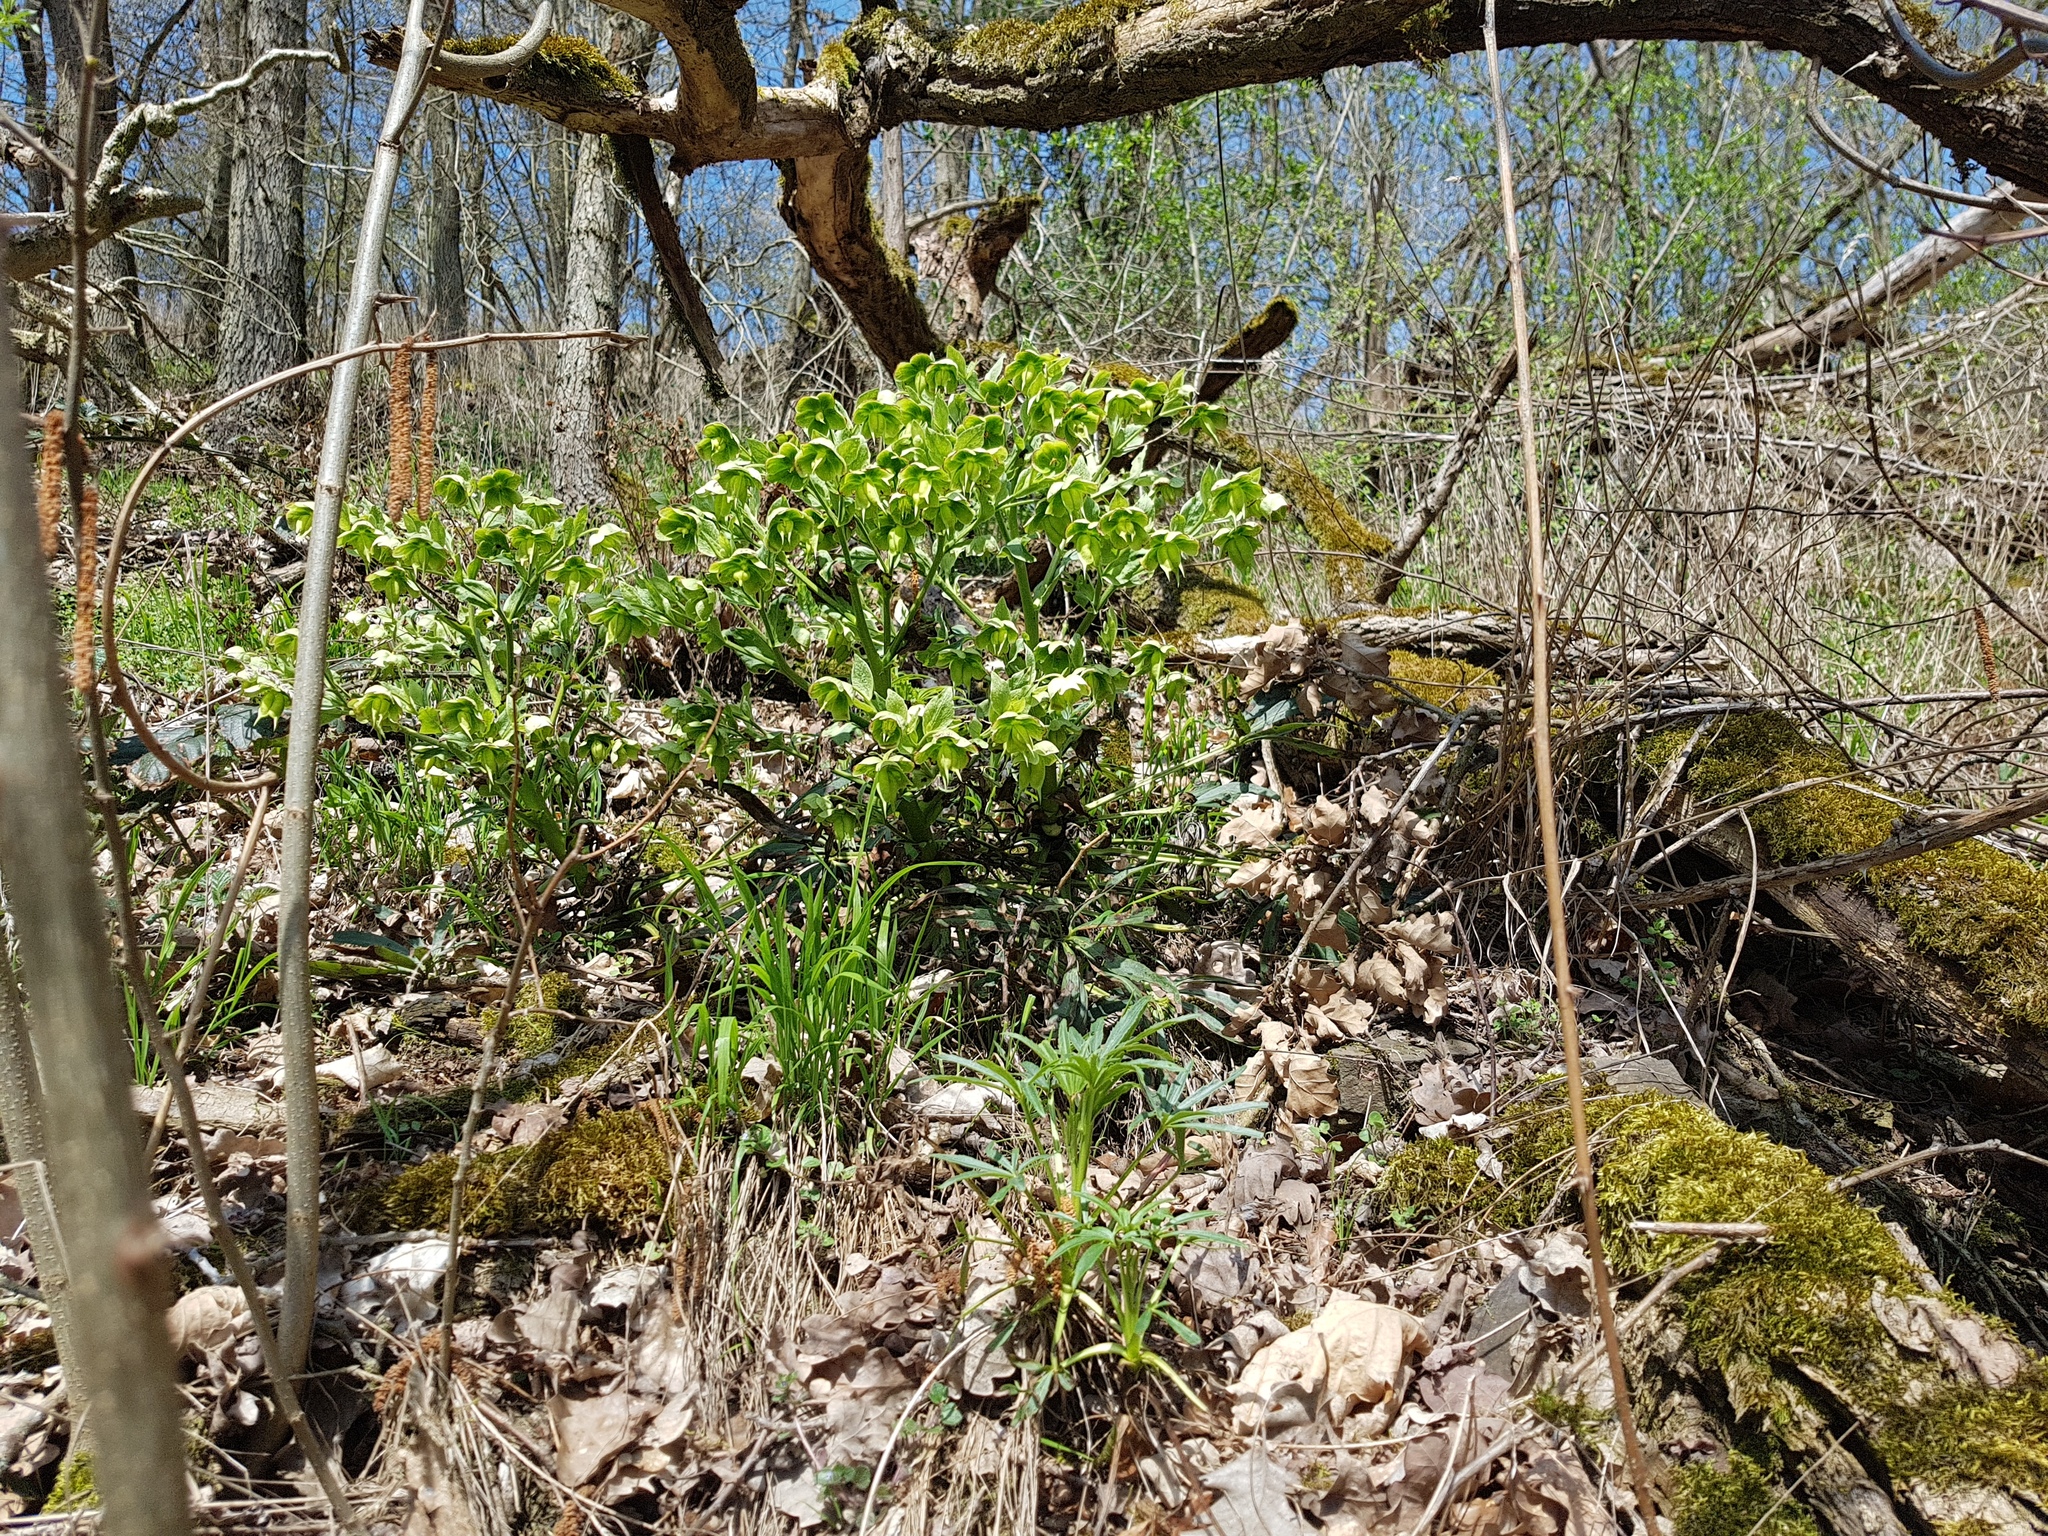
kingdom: Plantae
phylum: Tracheophyta
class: Magnoliopsida
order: Ranunculales
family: Ranunculaceae
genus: Helleborus
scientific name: Helleborus foetidus
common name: Stinking hellebore
